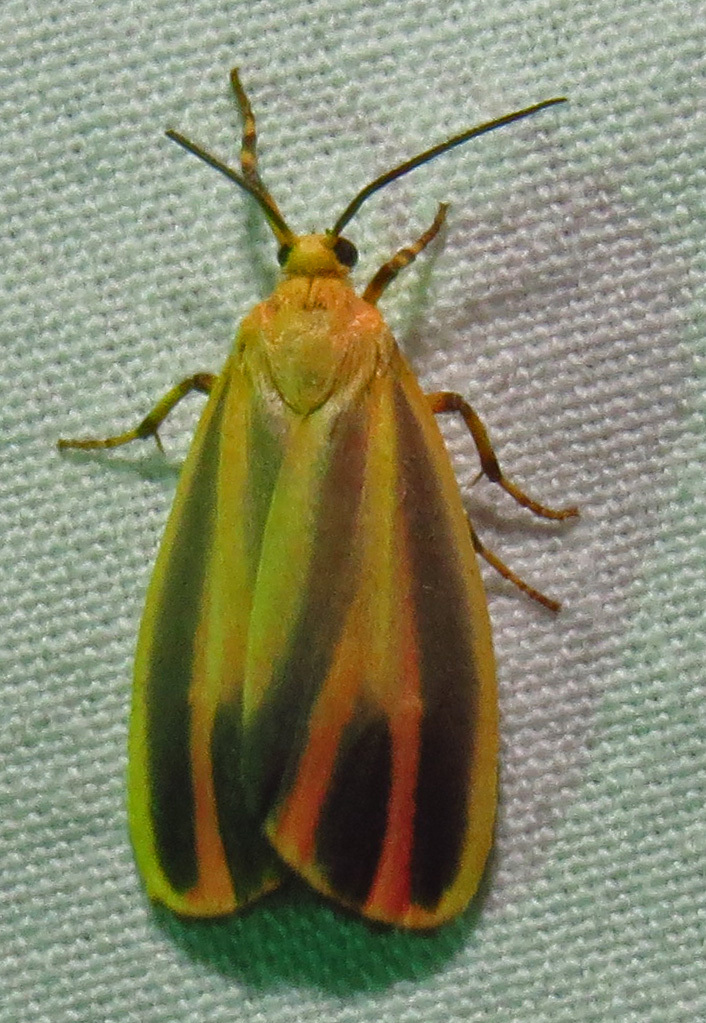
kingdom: Animalia
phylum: Arthropoda
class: Insecta
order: Lepidoptera
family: Erebidae
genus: Hypoprepia
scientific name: Hypoprepia fucosa
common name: Painted lichen moth
